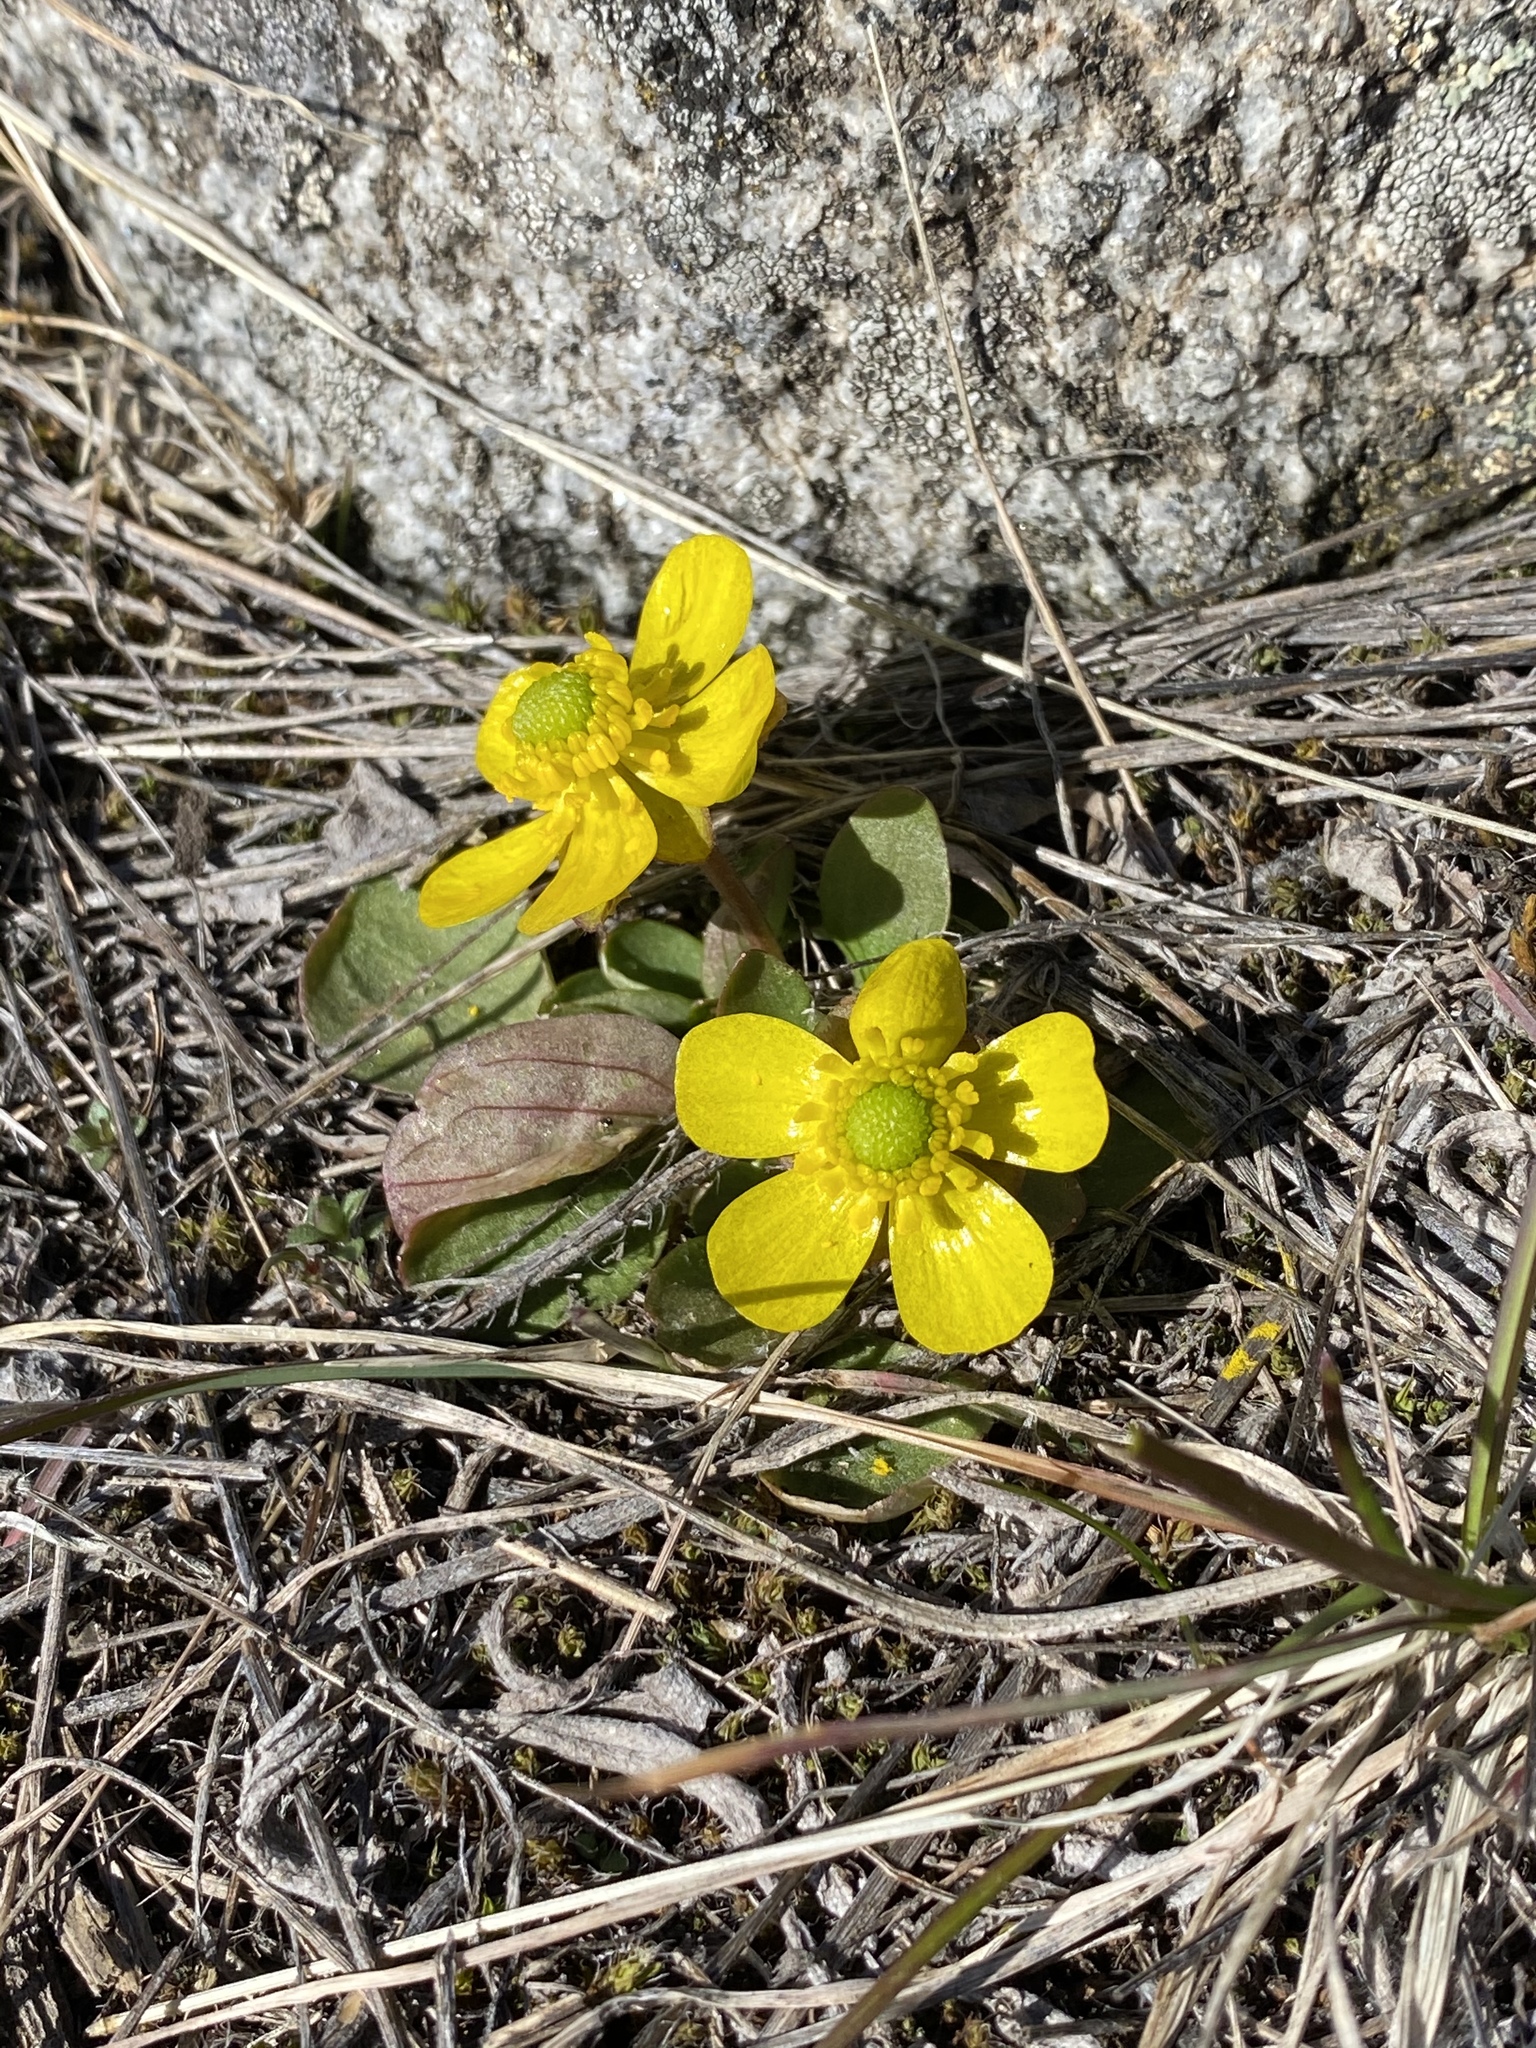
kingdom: Plantae
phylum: Tracheophyta
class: Magnoliopsida
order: Ranunculales
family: Ranunculaceae
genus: Ranunculus
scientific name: Ranunculus glaberrimus
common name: Sagebrush buttercup
